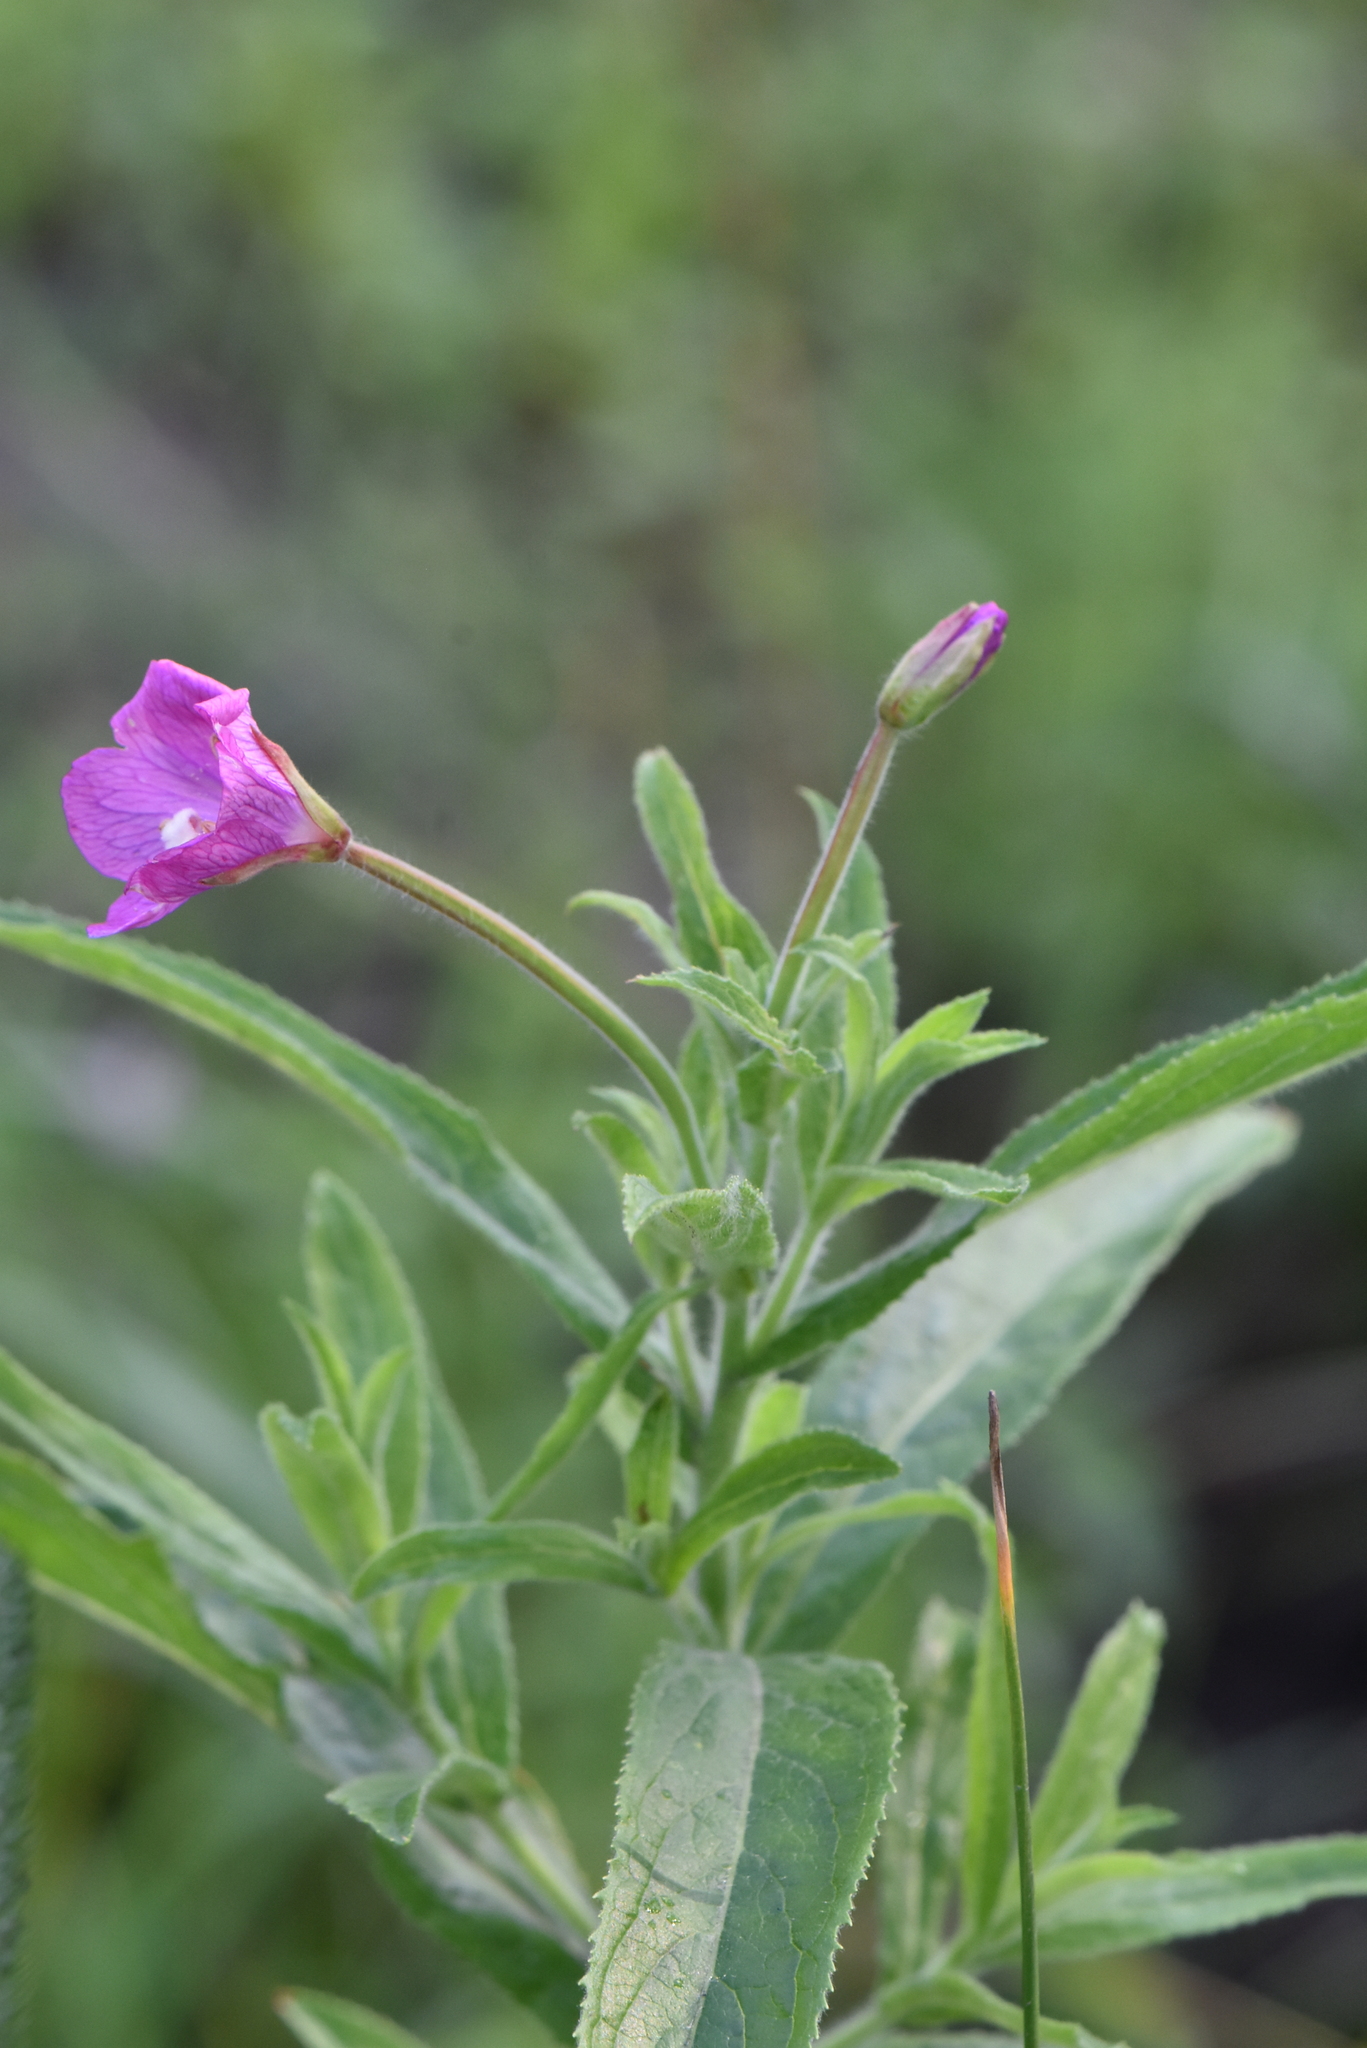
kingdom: Plantae
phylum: Tracheophyta
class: Magnoliopsida
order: Myrtales
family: Onagraceae
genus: Epilobium
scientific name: Epilobium hirsutum
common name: Great willowherb
